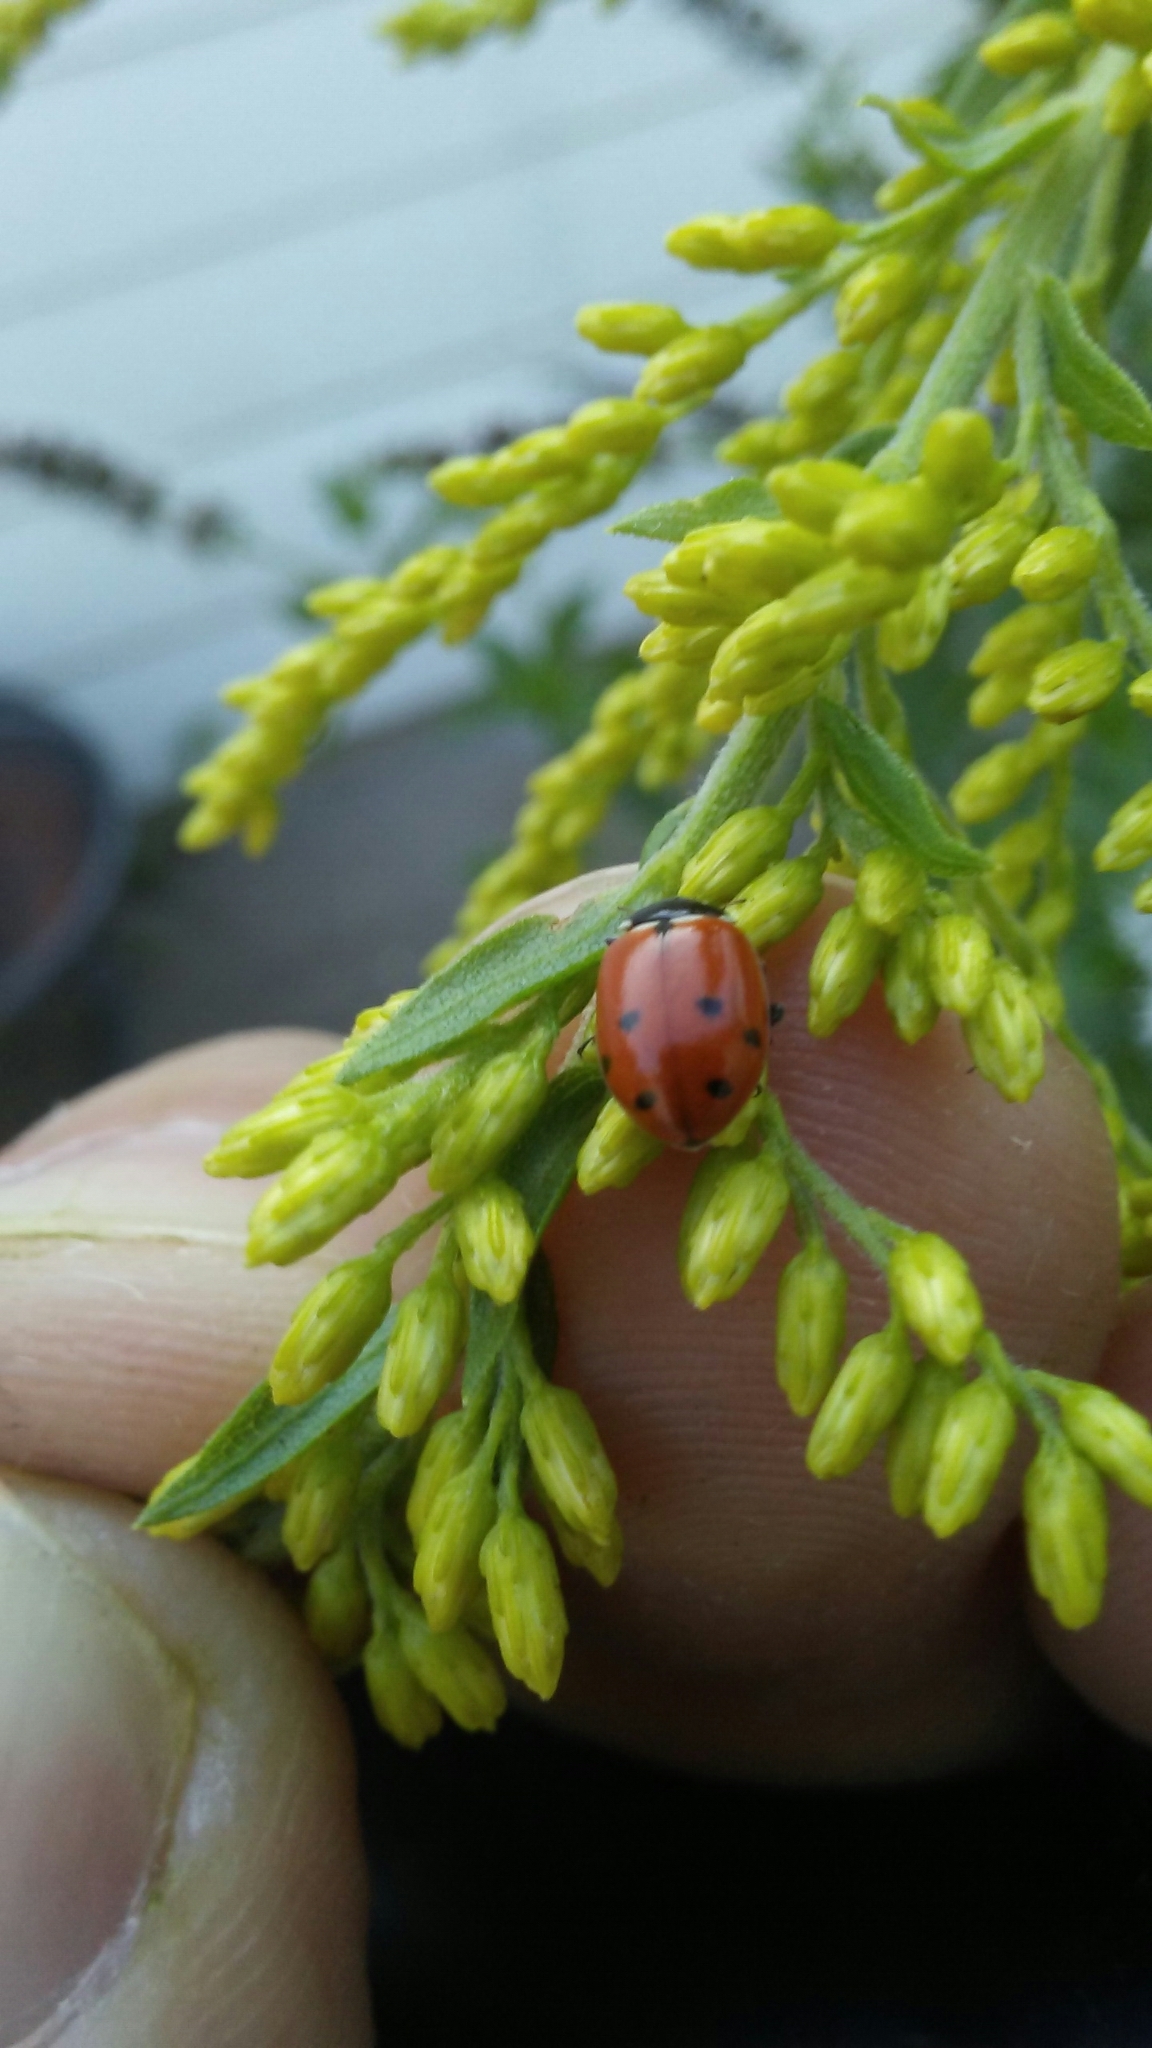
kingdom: Animalia
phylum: Arthropoda
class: Insecta
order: Coleoptera
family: Coccinellidae
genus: Hippodamia
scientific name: Hippodamia variegata
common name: Ladybird beetle
